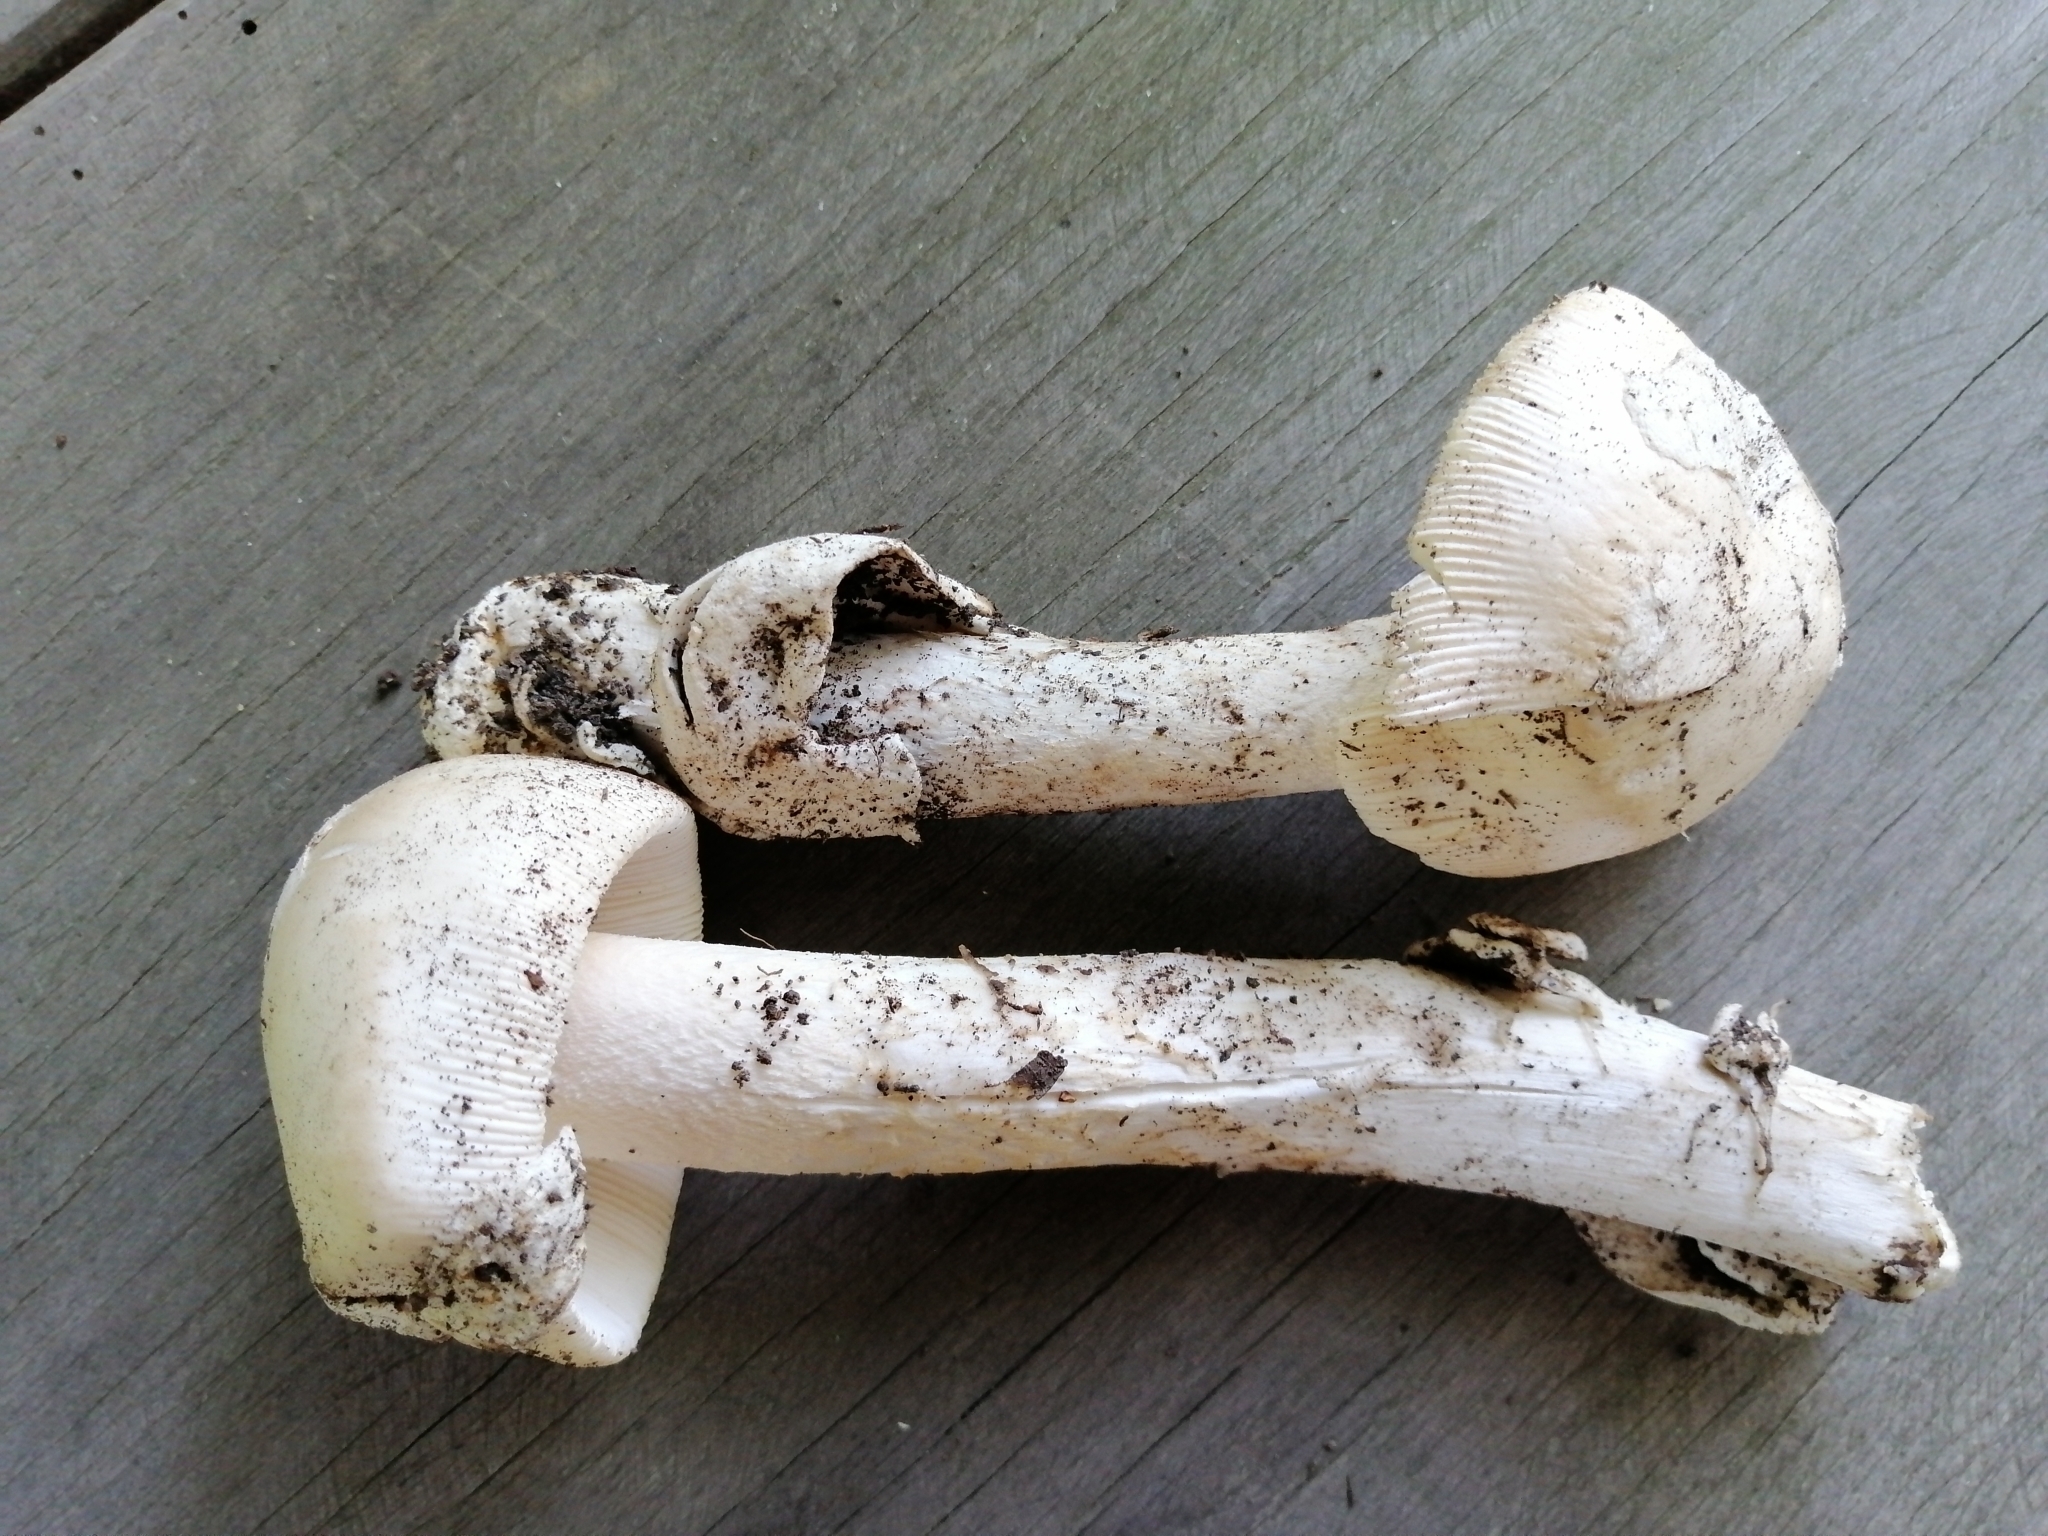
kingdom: Fungi
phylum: Basidiomycota
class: Agaricomycetes
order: Agaricales
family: Amanitaceae
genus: Amanita
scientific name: Amanita lividopallescens
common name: Pale grisette
